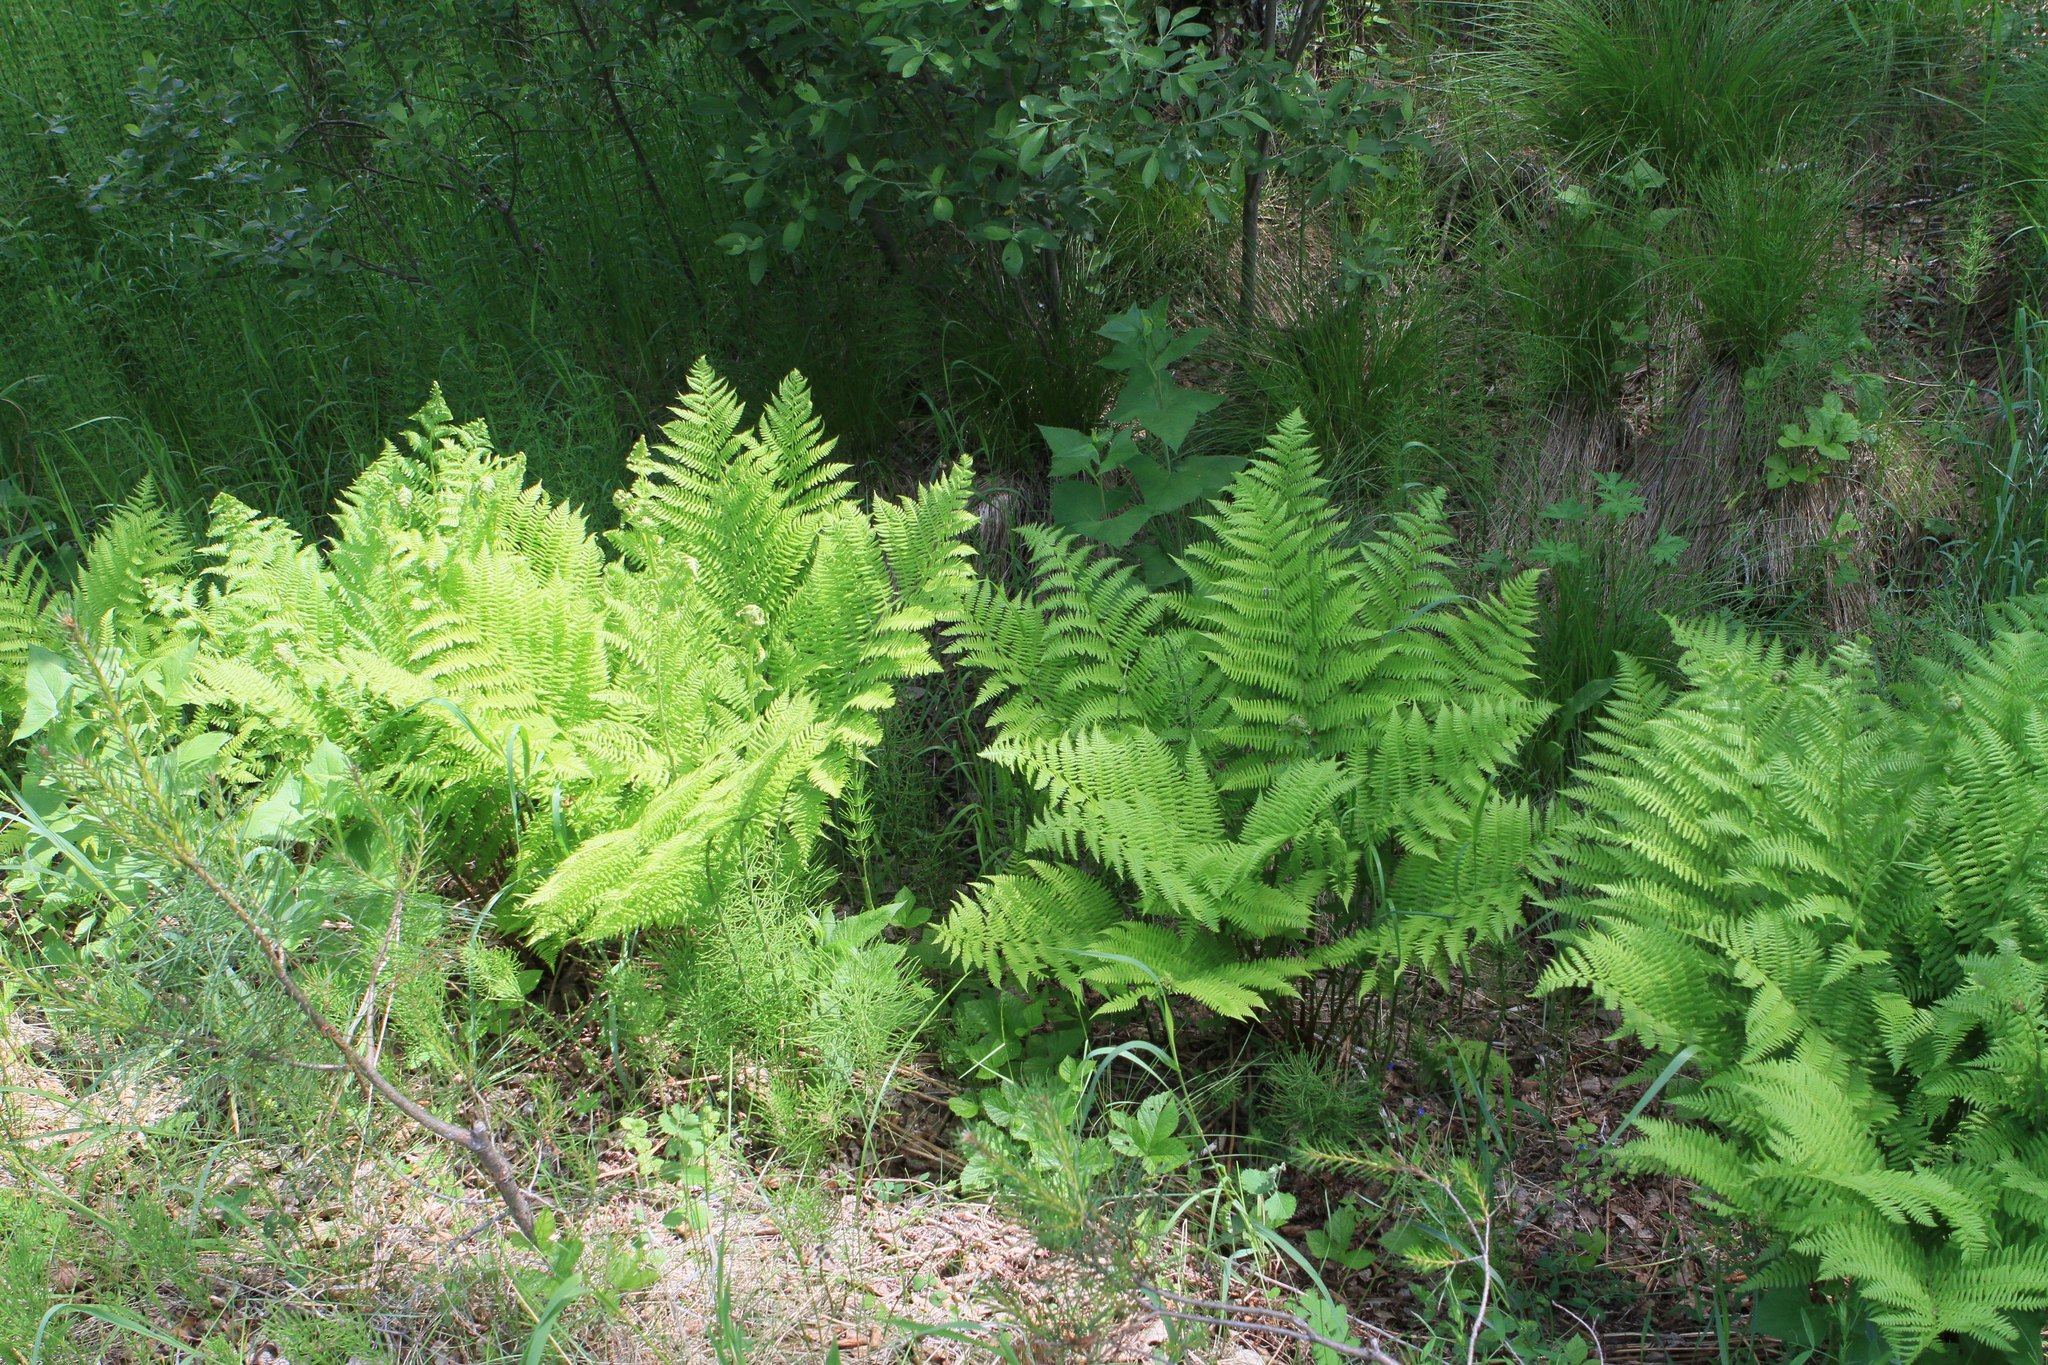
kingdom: Plantae
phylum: Tracheophyta
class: Polypodiopsida
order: Polypodiales
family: Athyriaceae
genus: Athyrium
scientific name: Athyrium filix-femina
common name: Lady fern
